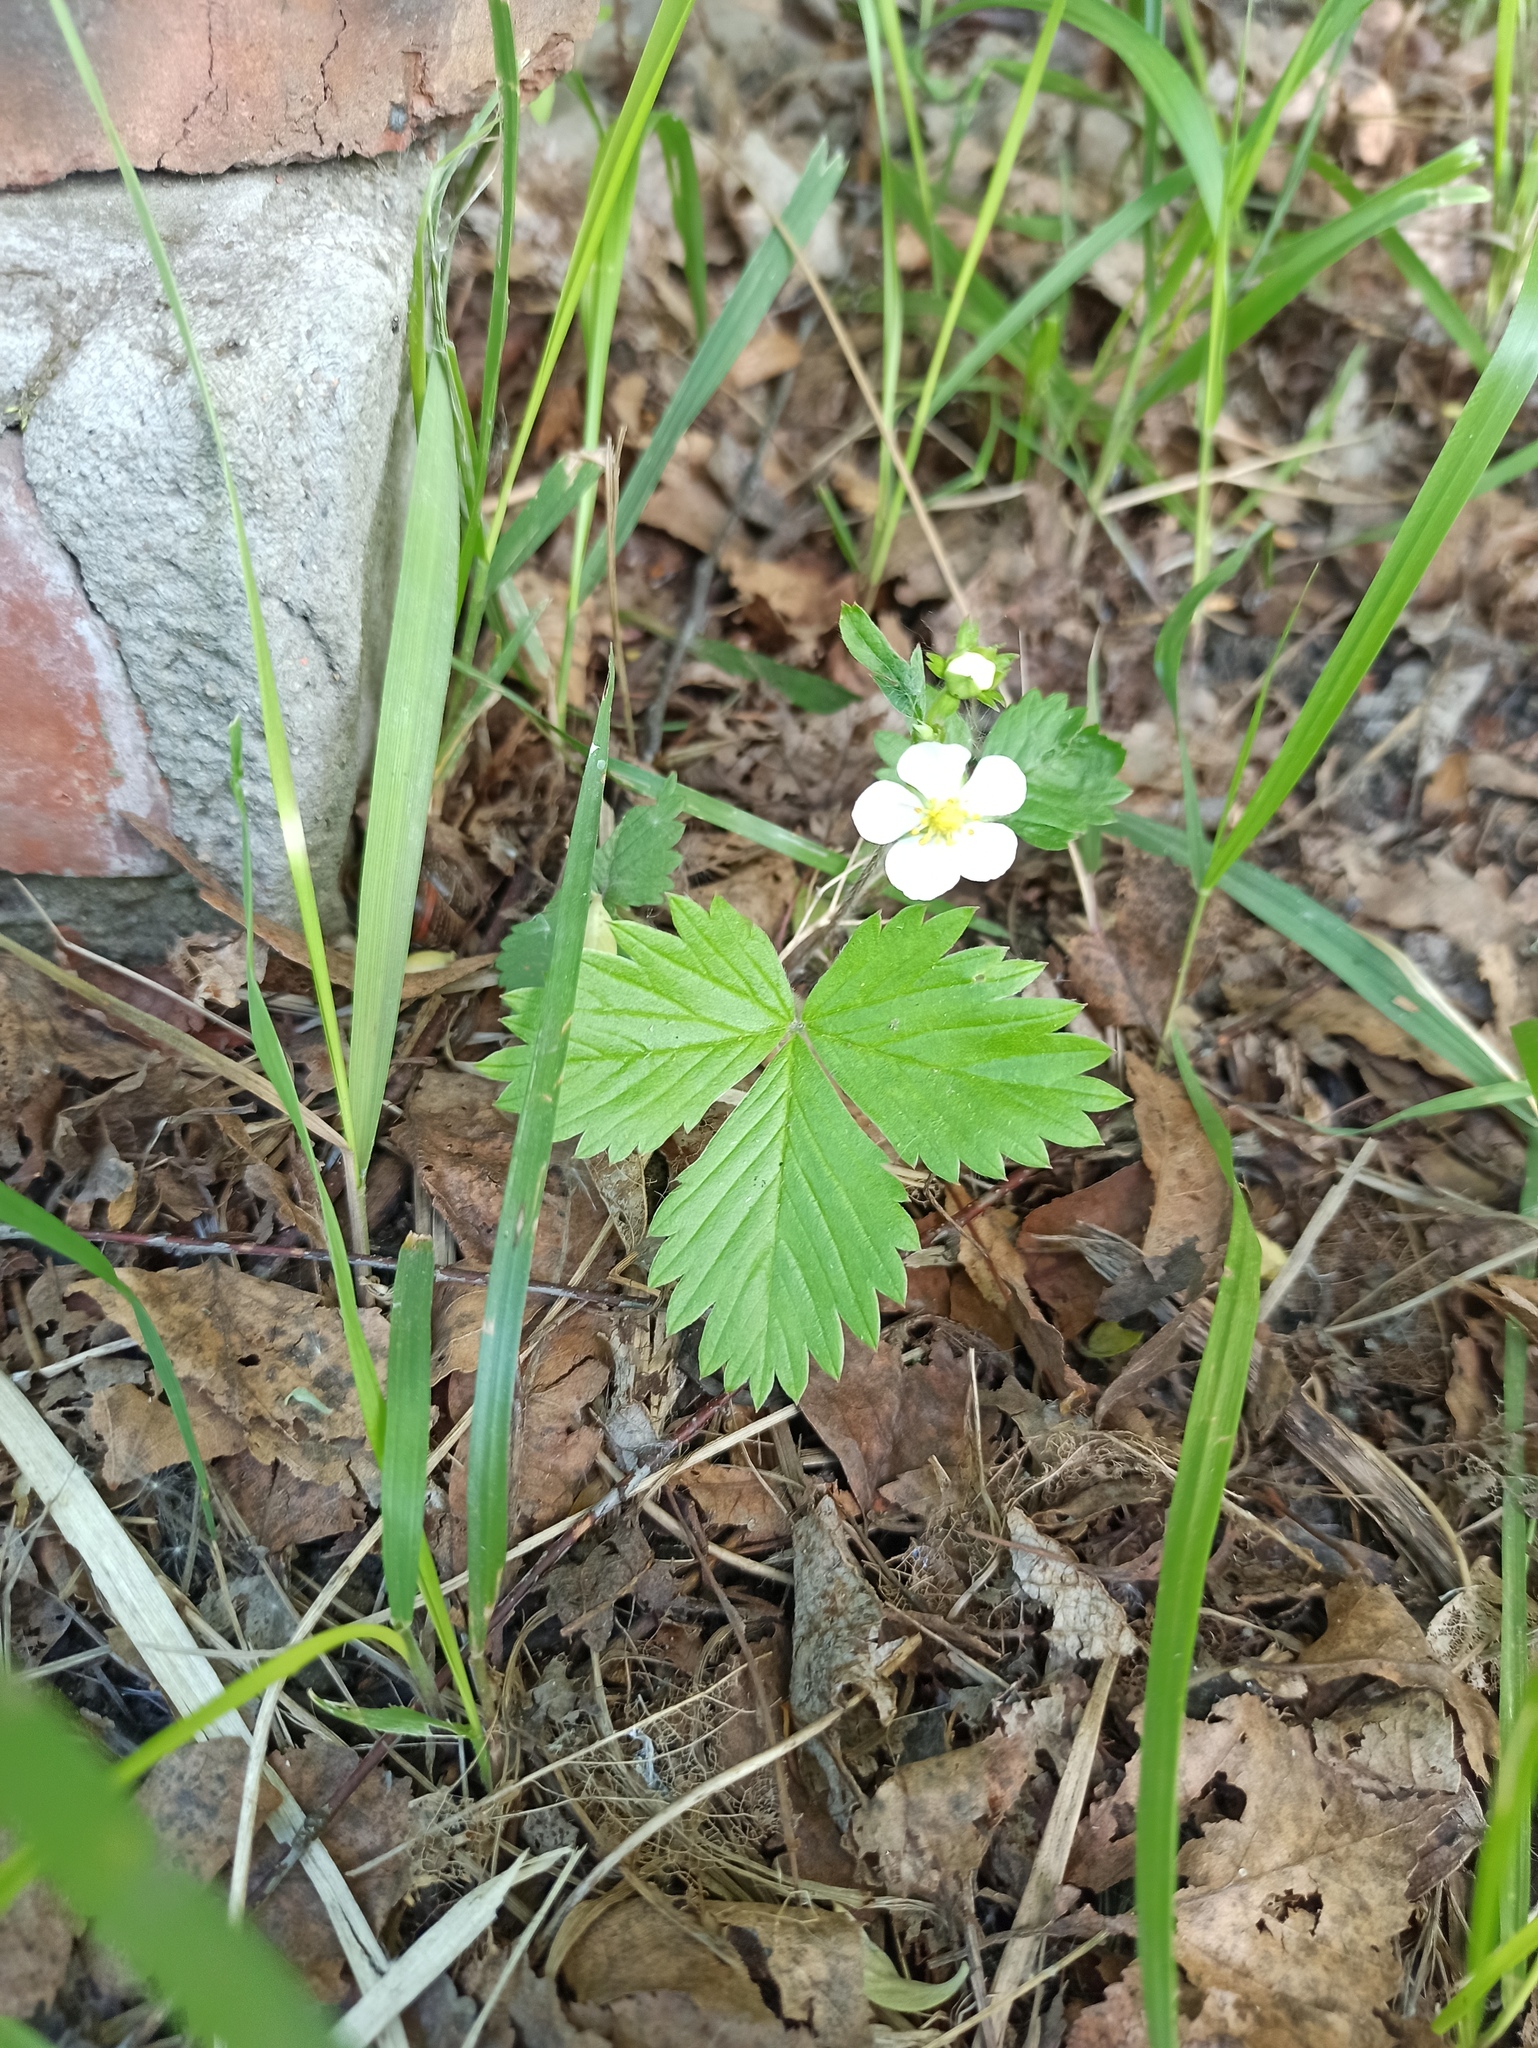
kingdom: Plantae
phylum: Tracheophyta
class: Magnoliopsida
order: Rosales
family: Rosaceae
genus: Fragaria
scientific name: Fragaria vesca
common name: Wild strawberry
